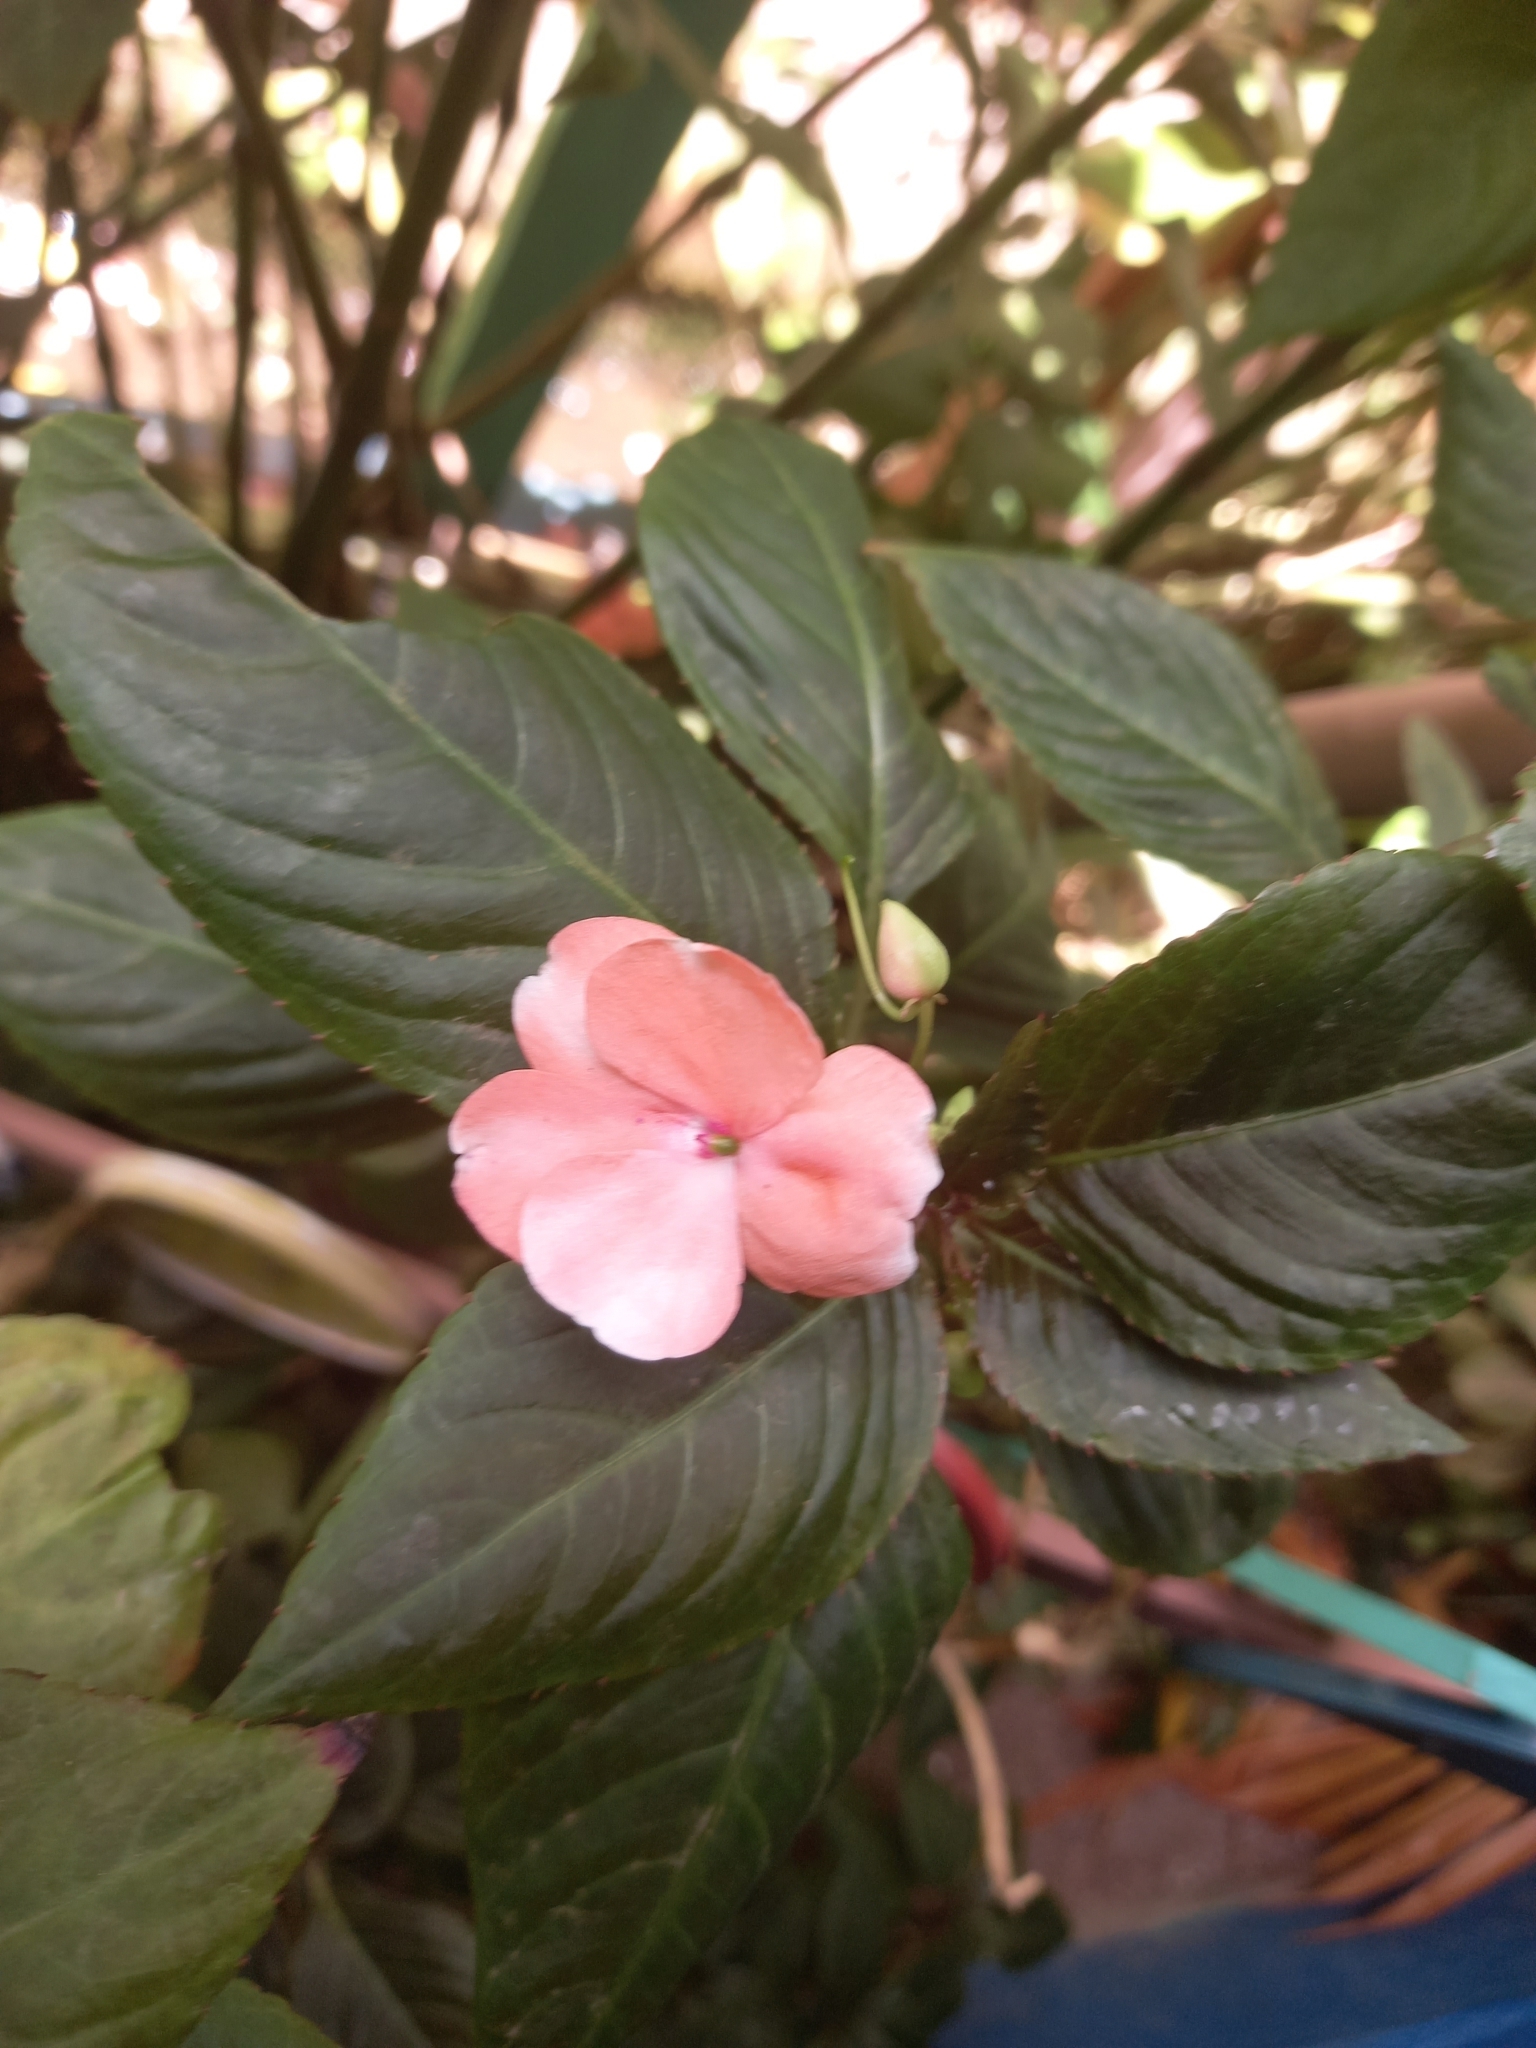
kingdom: Plantae
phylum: Tracheophyta
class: Magnoliopsida
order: Ericales
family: Balsaminaceae
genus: Impatiens
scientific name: Impatiens walleriana
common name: Buzzy lizzy
